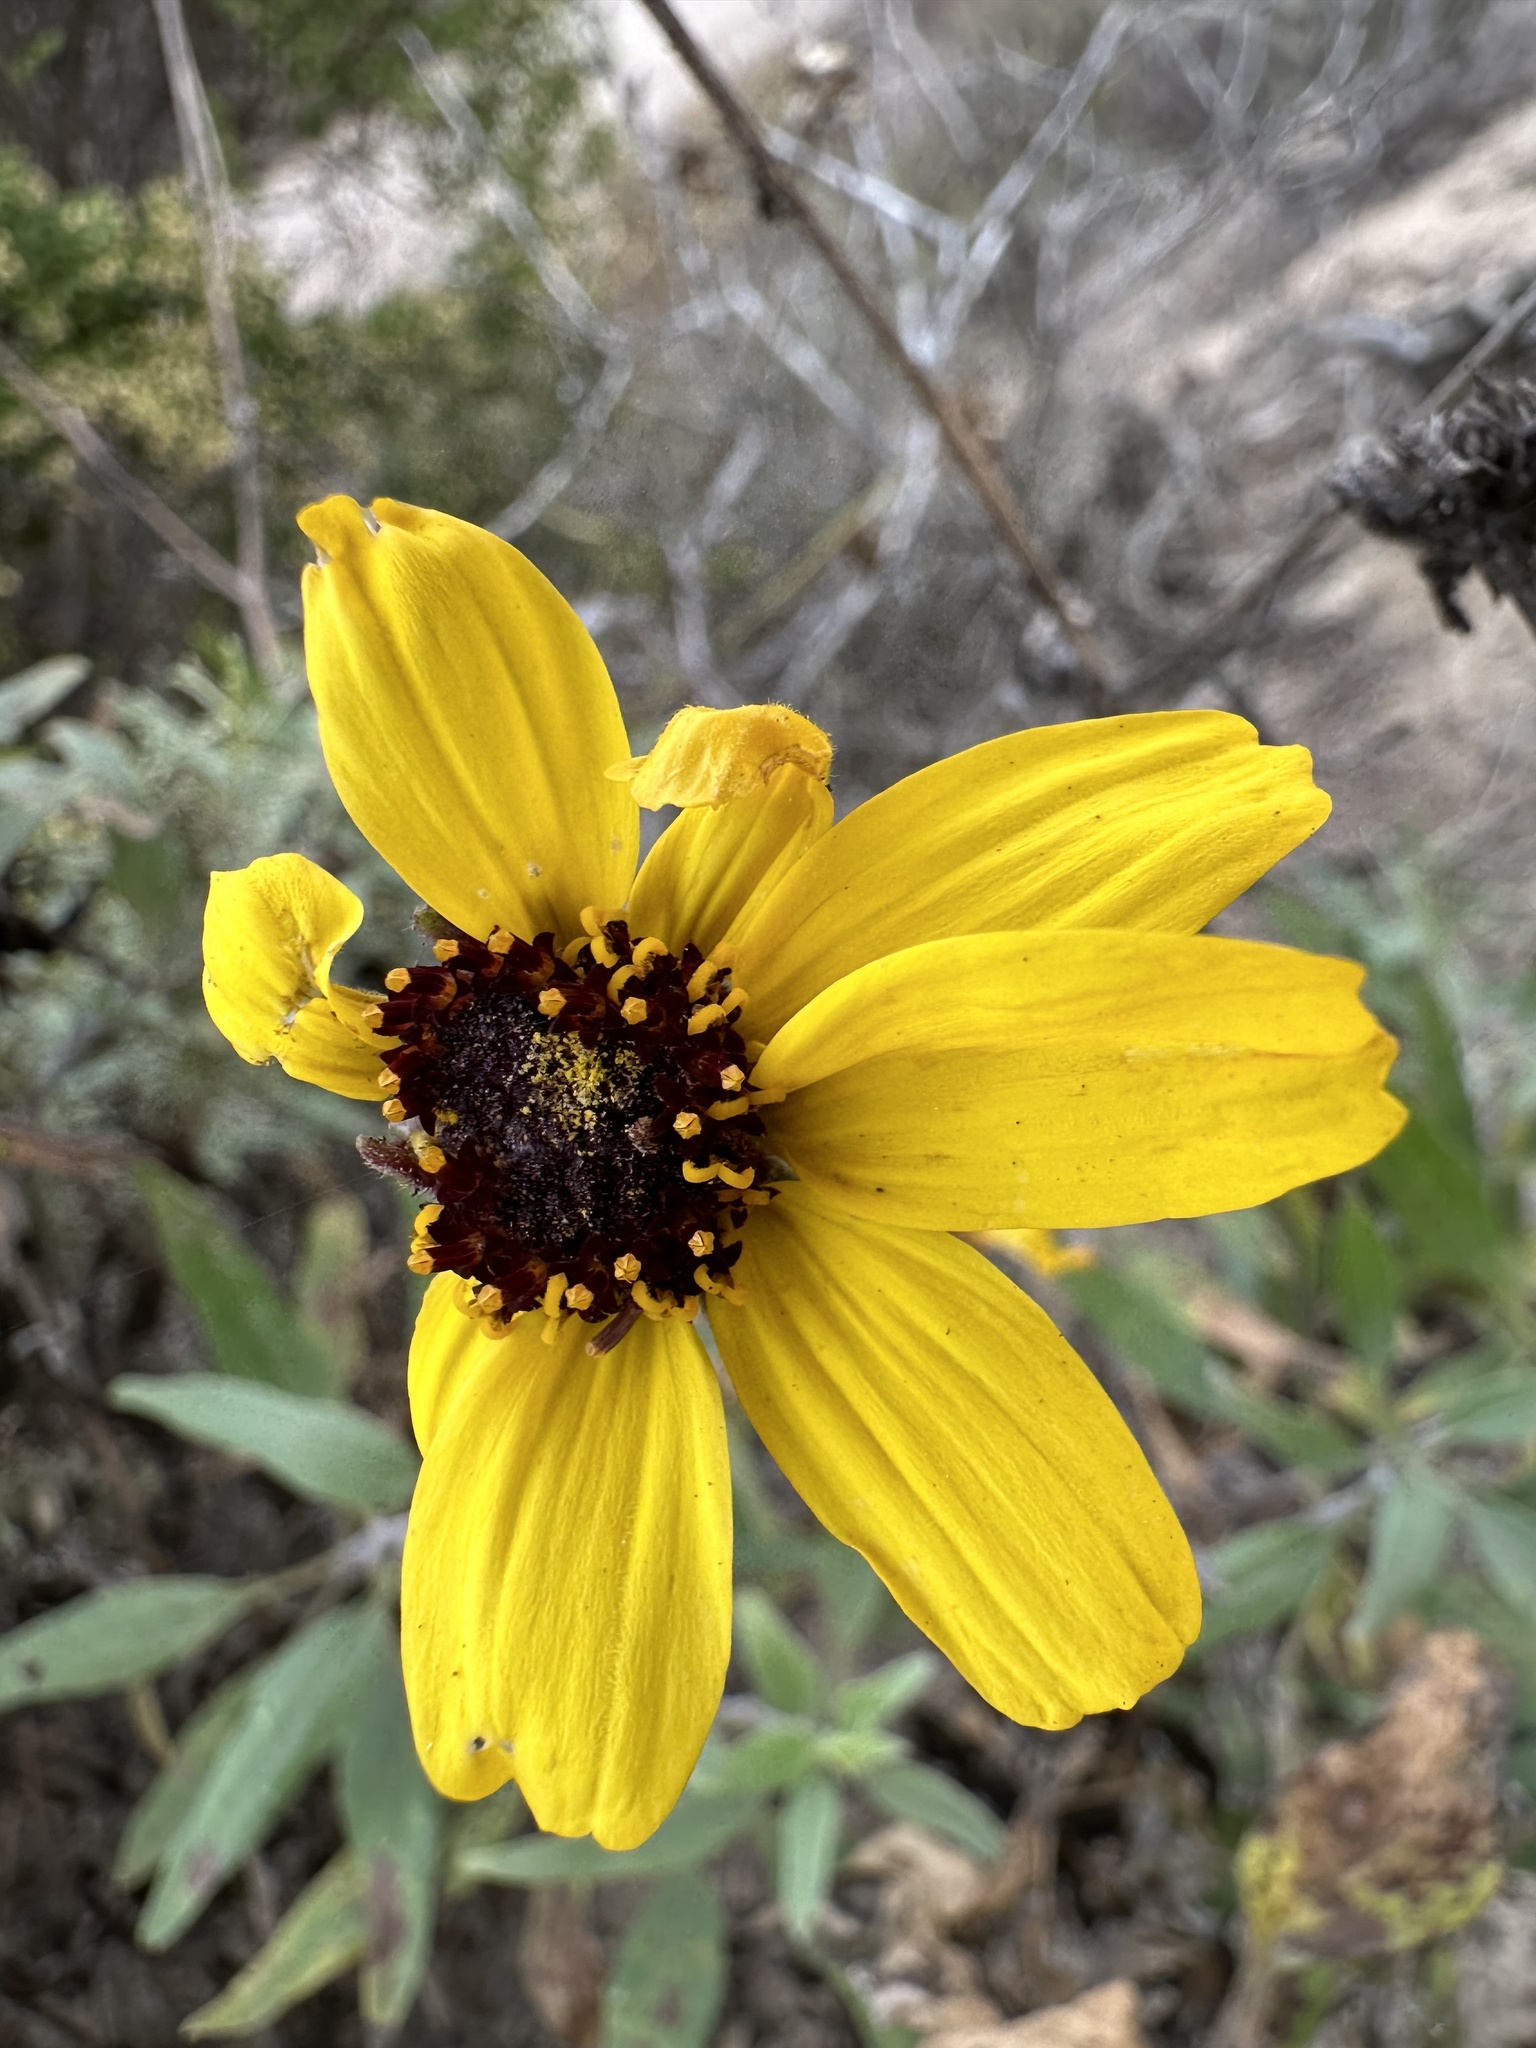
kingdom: Plantae
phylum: Tracheophyta
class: Magnoliopsida
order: Asterales
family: Asteraceae
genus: Encelia
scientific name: Encelia californica
